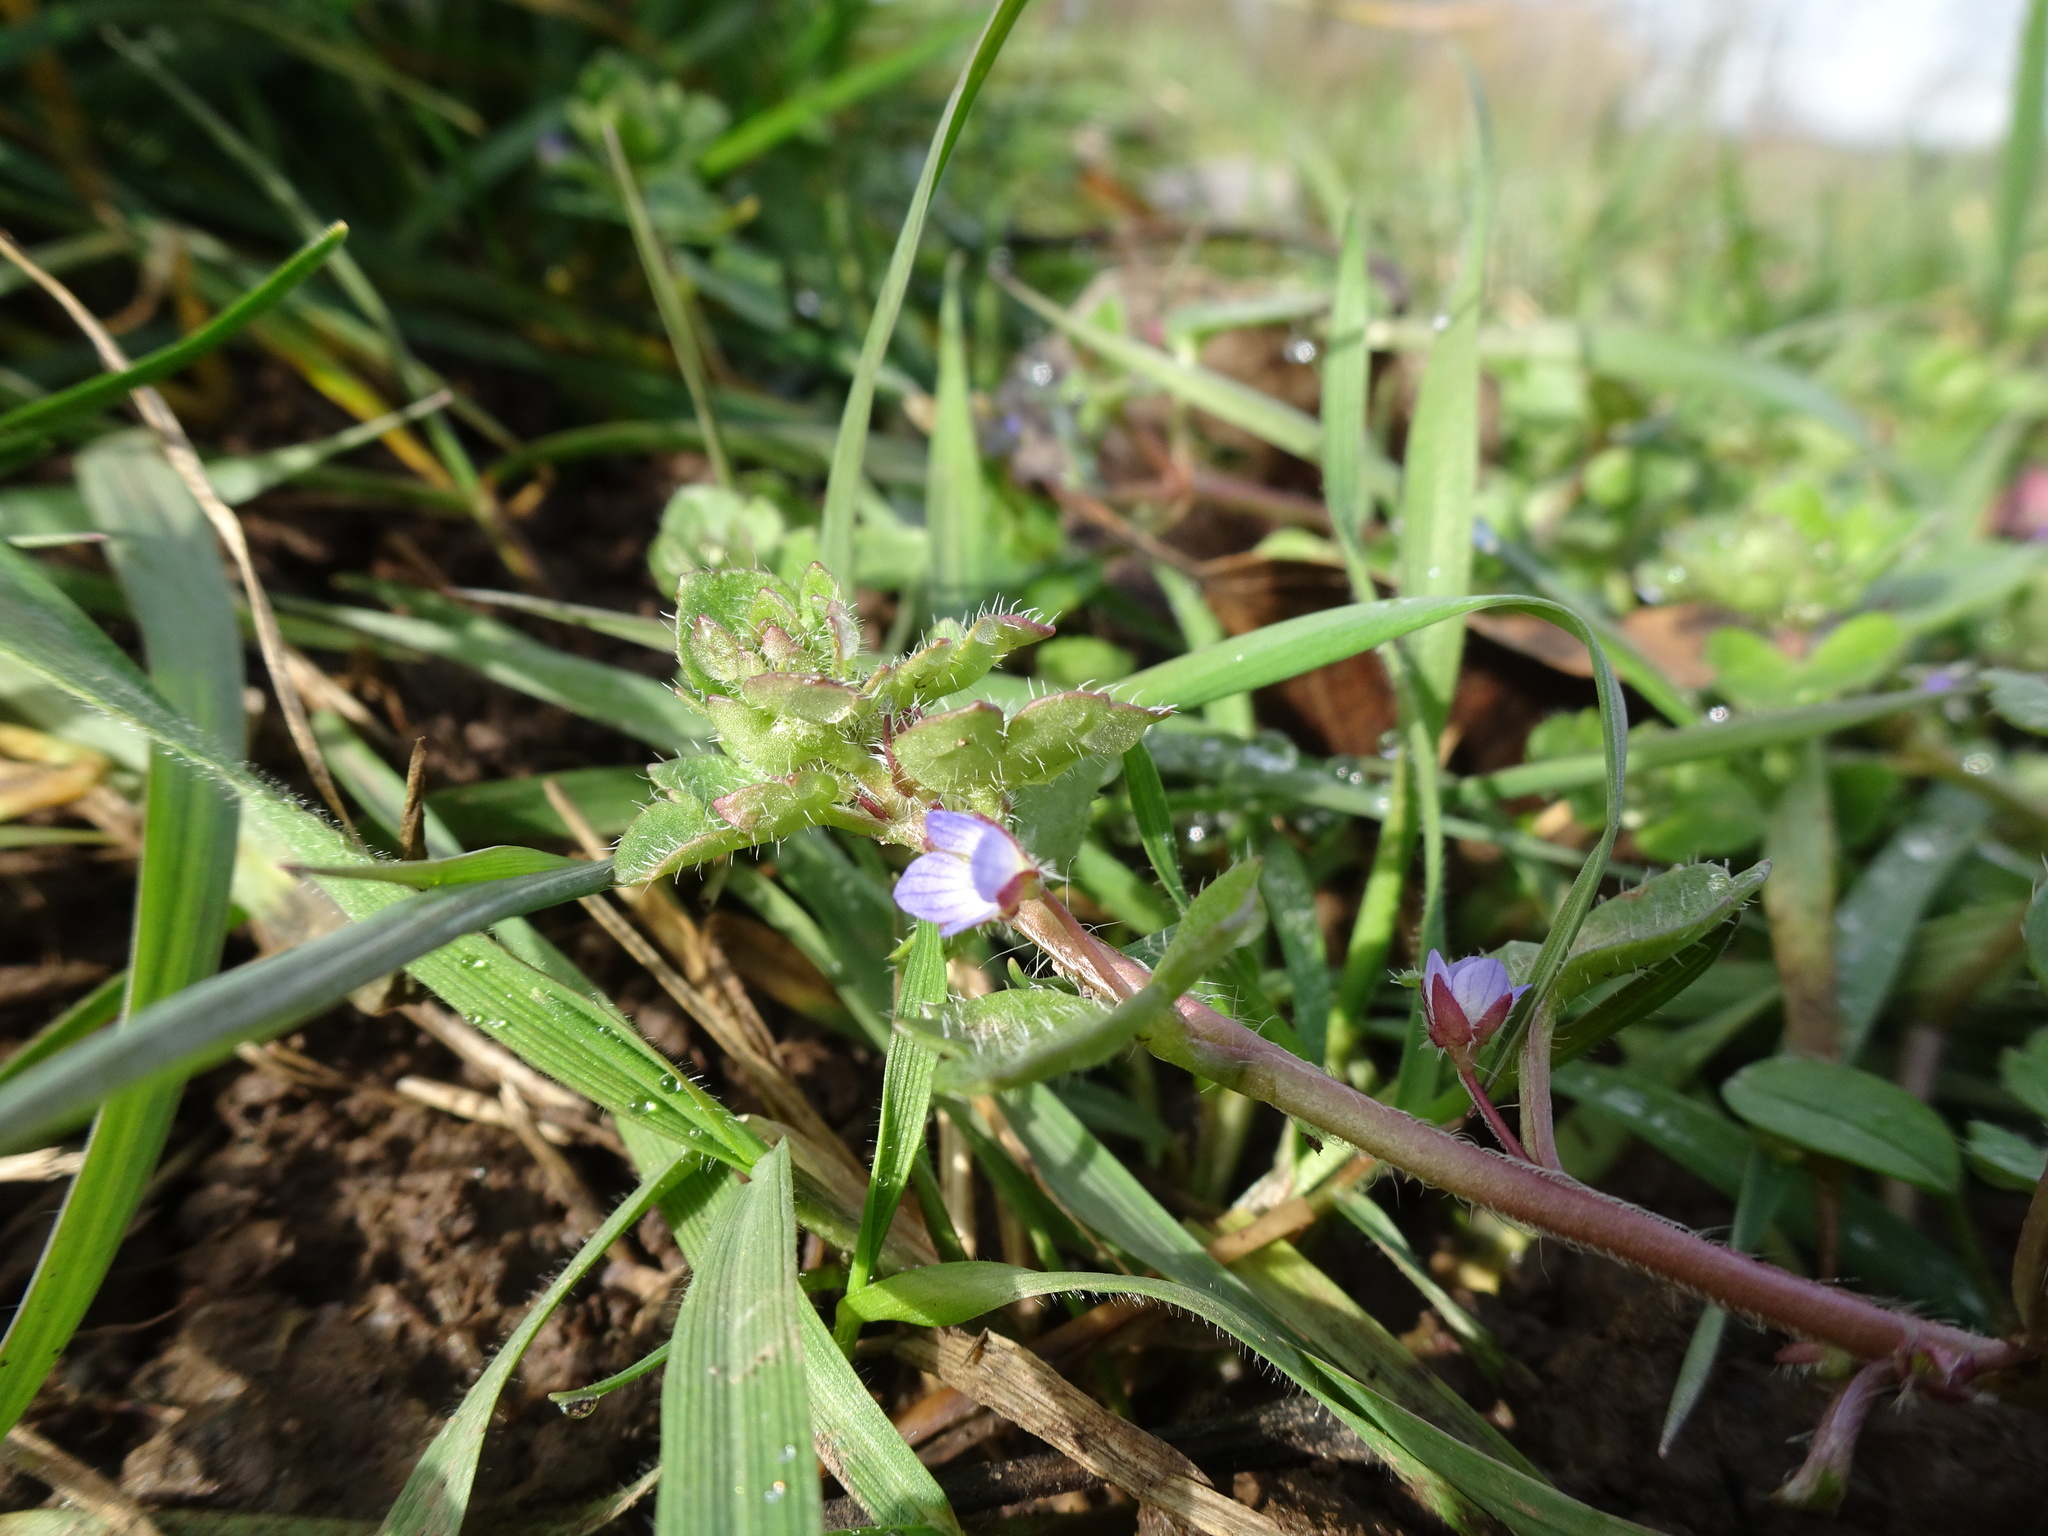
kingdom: Plantae
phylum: Tracheophyta
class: Magnoliopsida
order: Lamiales
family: Plantaginaceae
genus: Veronica
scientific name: Veronica hederifolia
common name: Ivy-leaved speedwell
